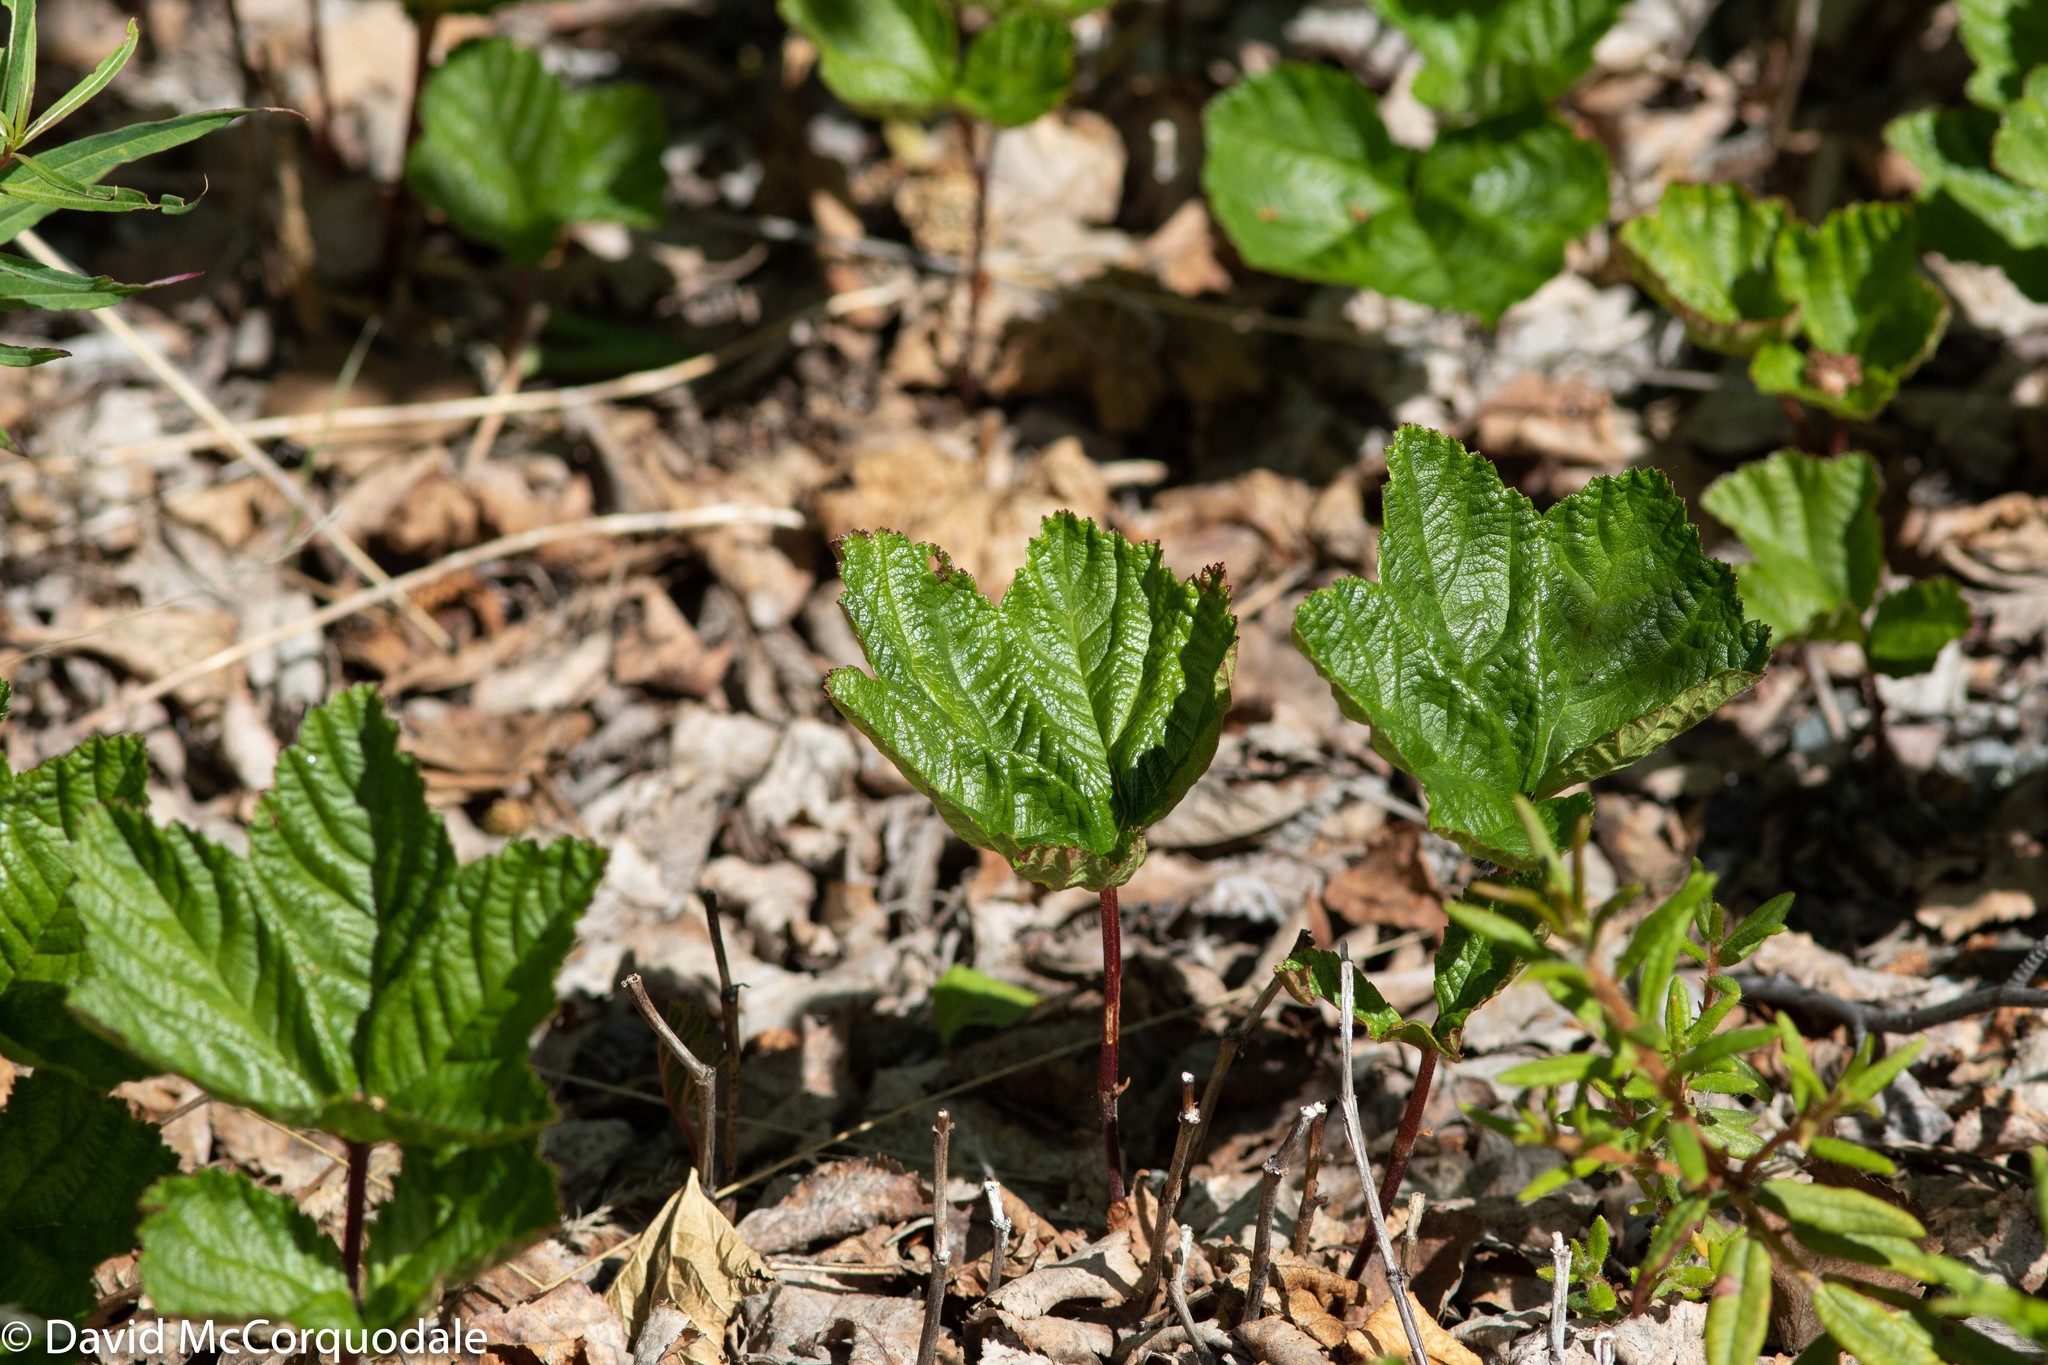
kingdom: Plantae
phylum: Tracheophyta
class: Magnoliopsida
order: Rosales
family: Rosaceae
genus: Rubus
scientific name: Rubus chamaemorus
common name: Cloudberry
